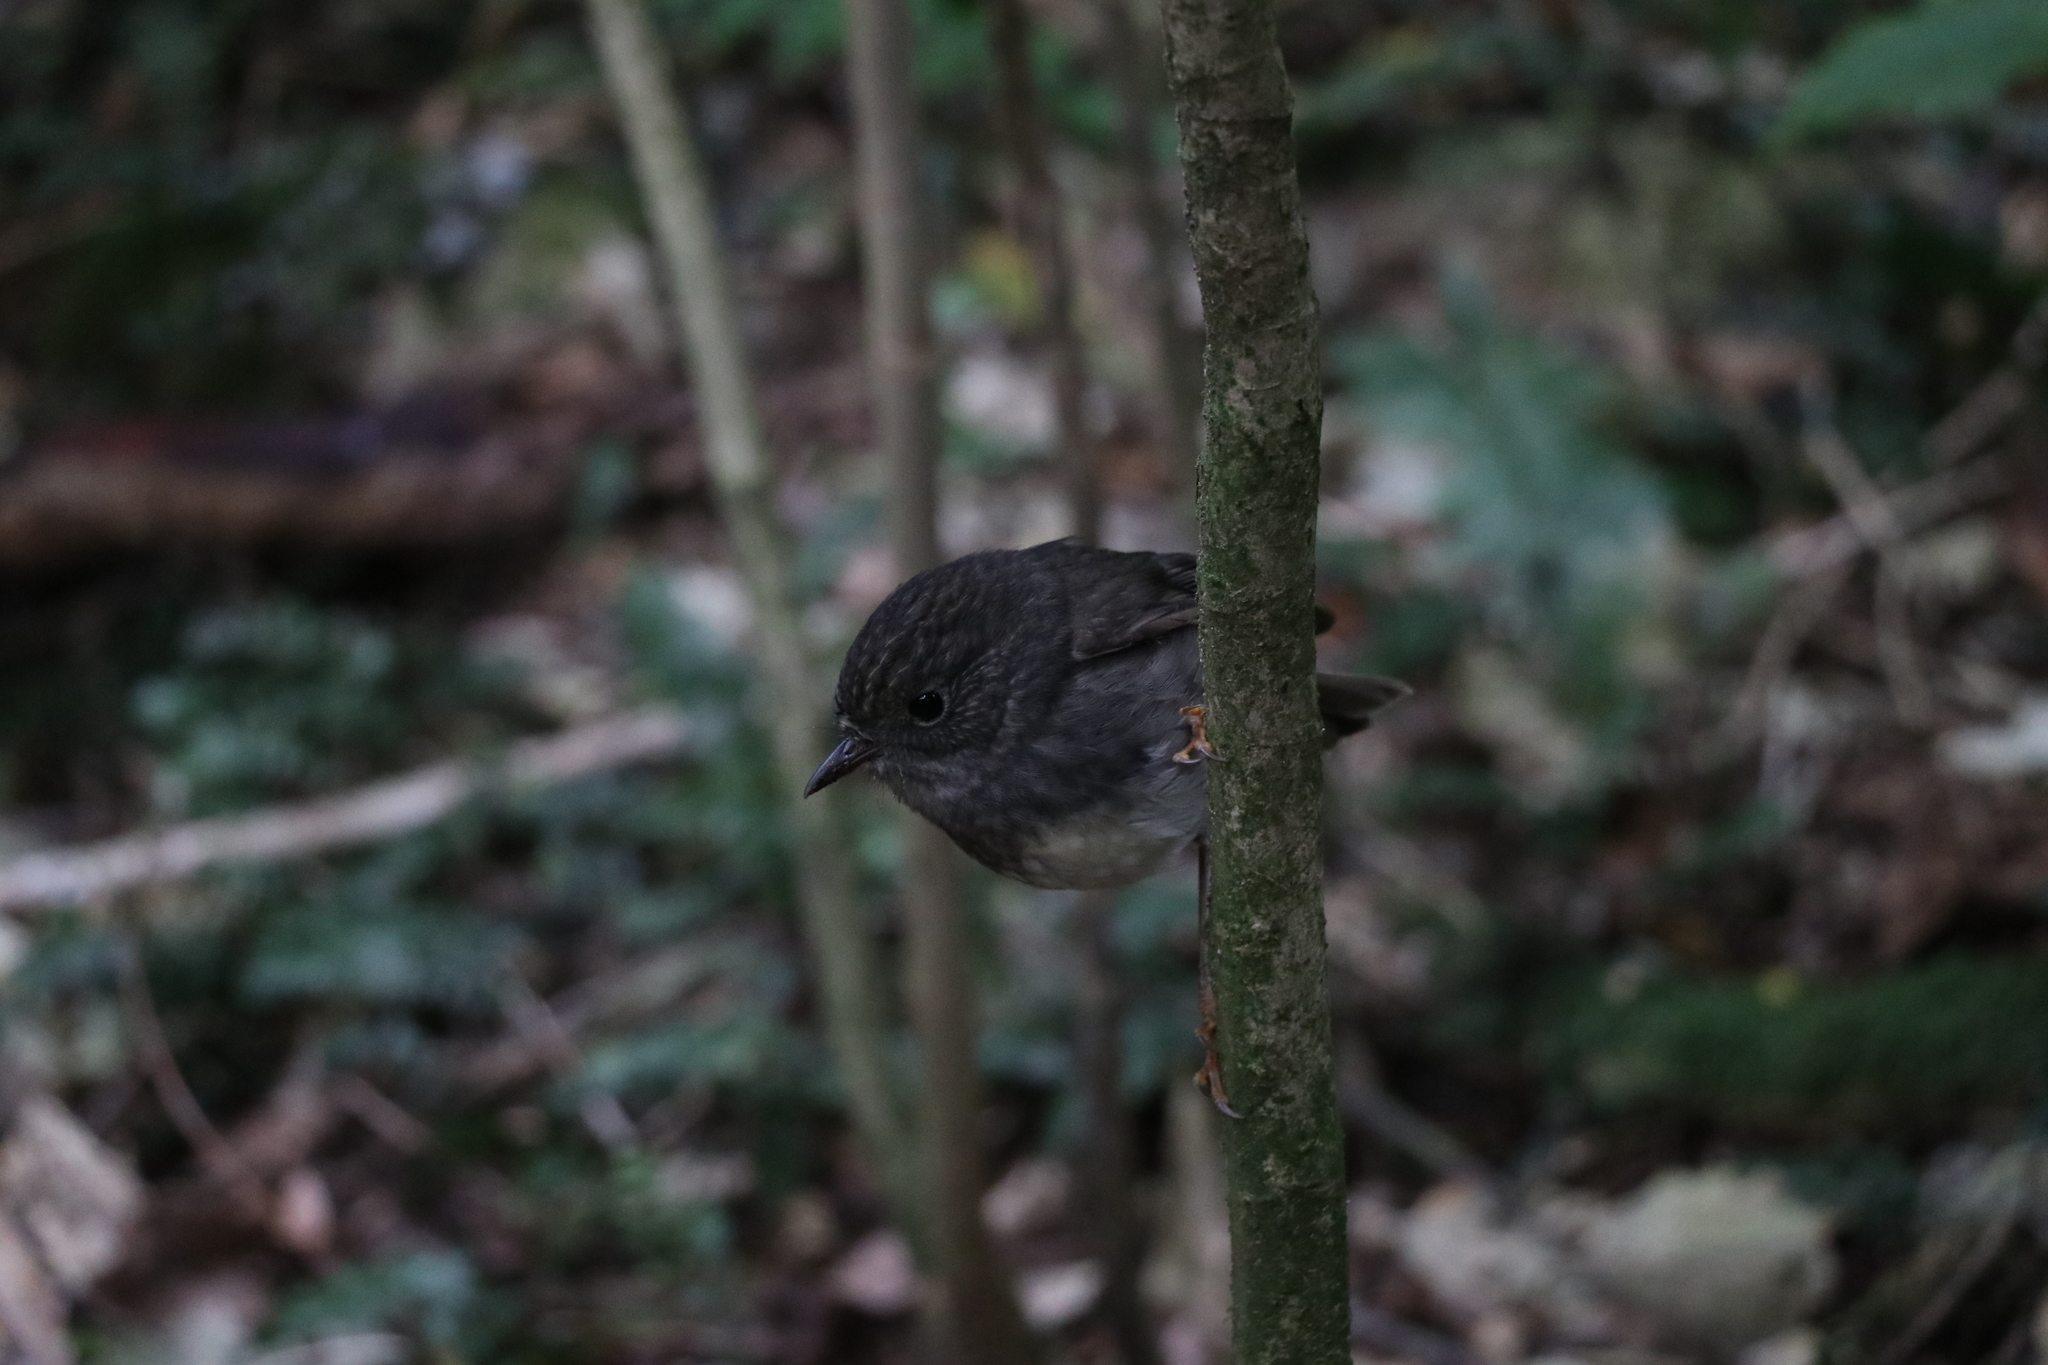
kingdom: Animalia
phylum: Chordata
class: Aves
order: Passeriformes
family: Petroicidae
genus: Petroica
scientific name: Petroica australis
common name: New zealand robin
